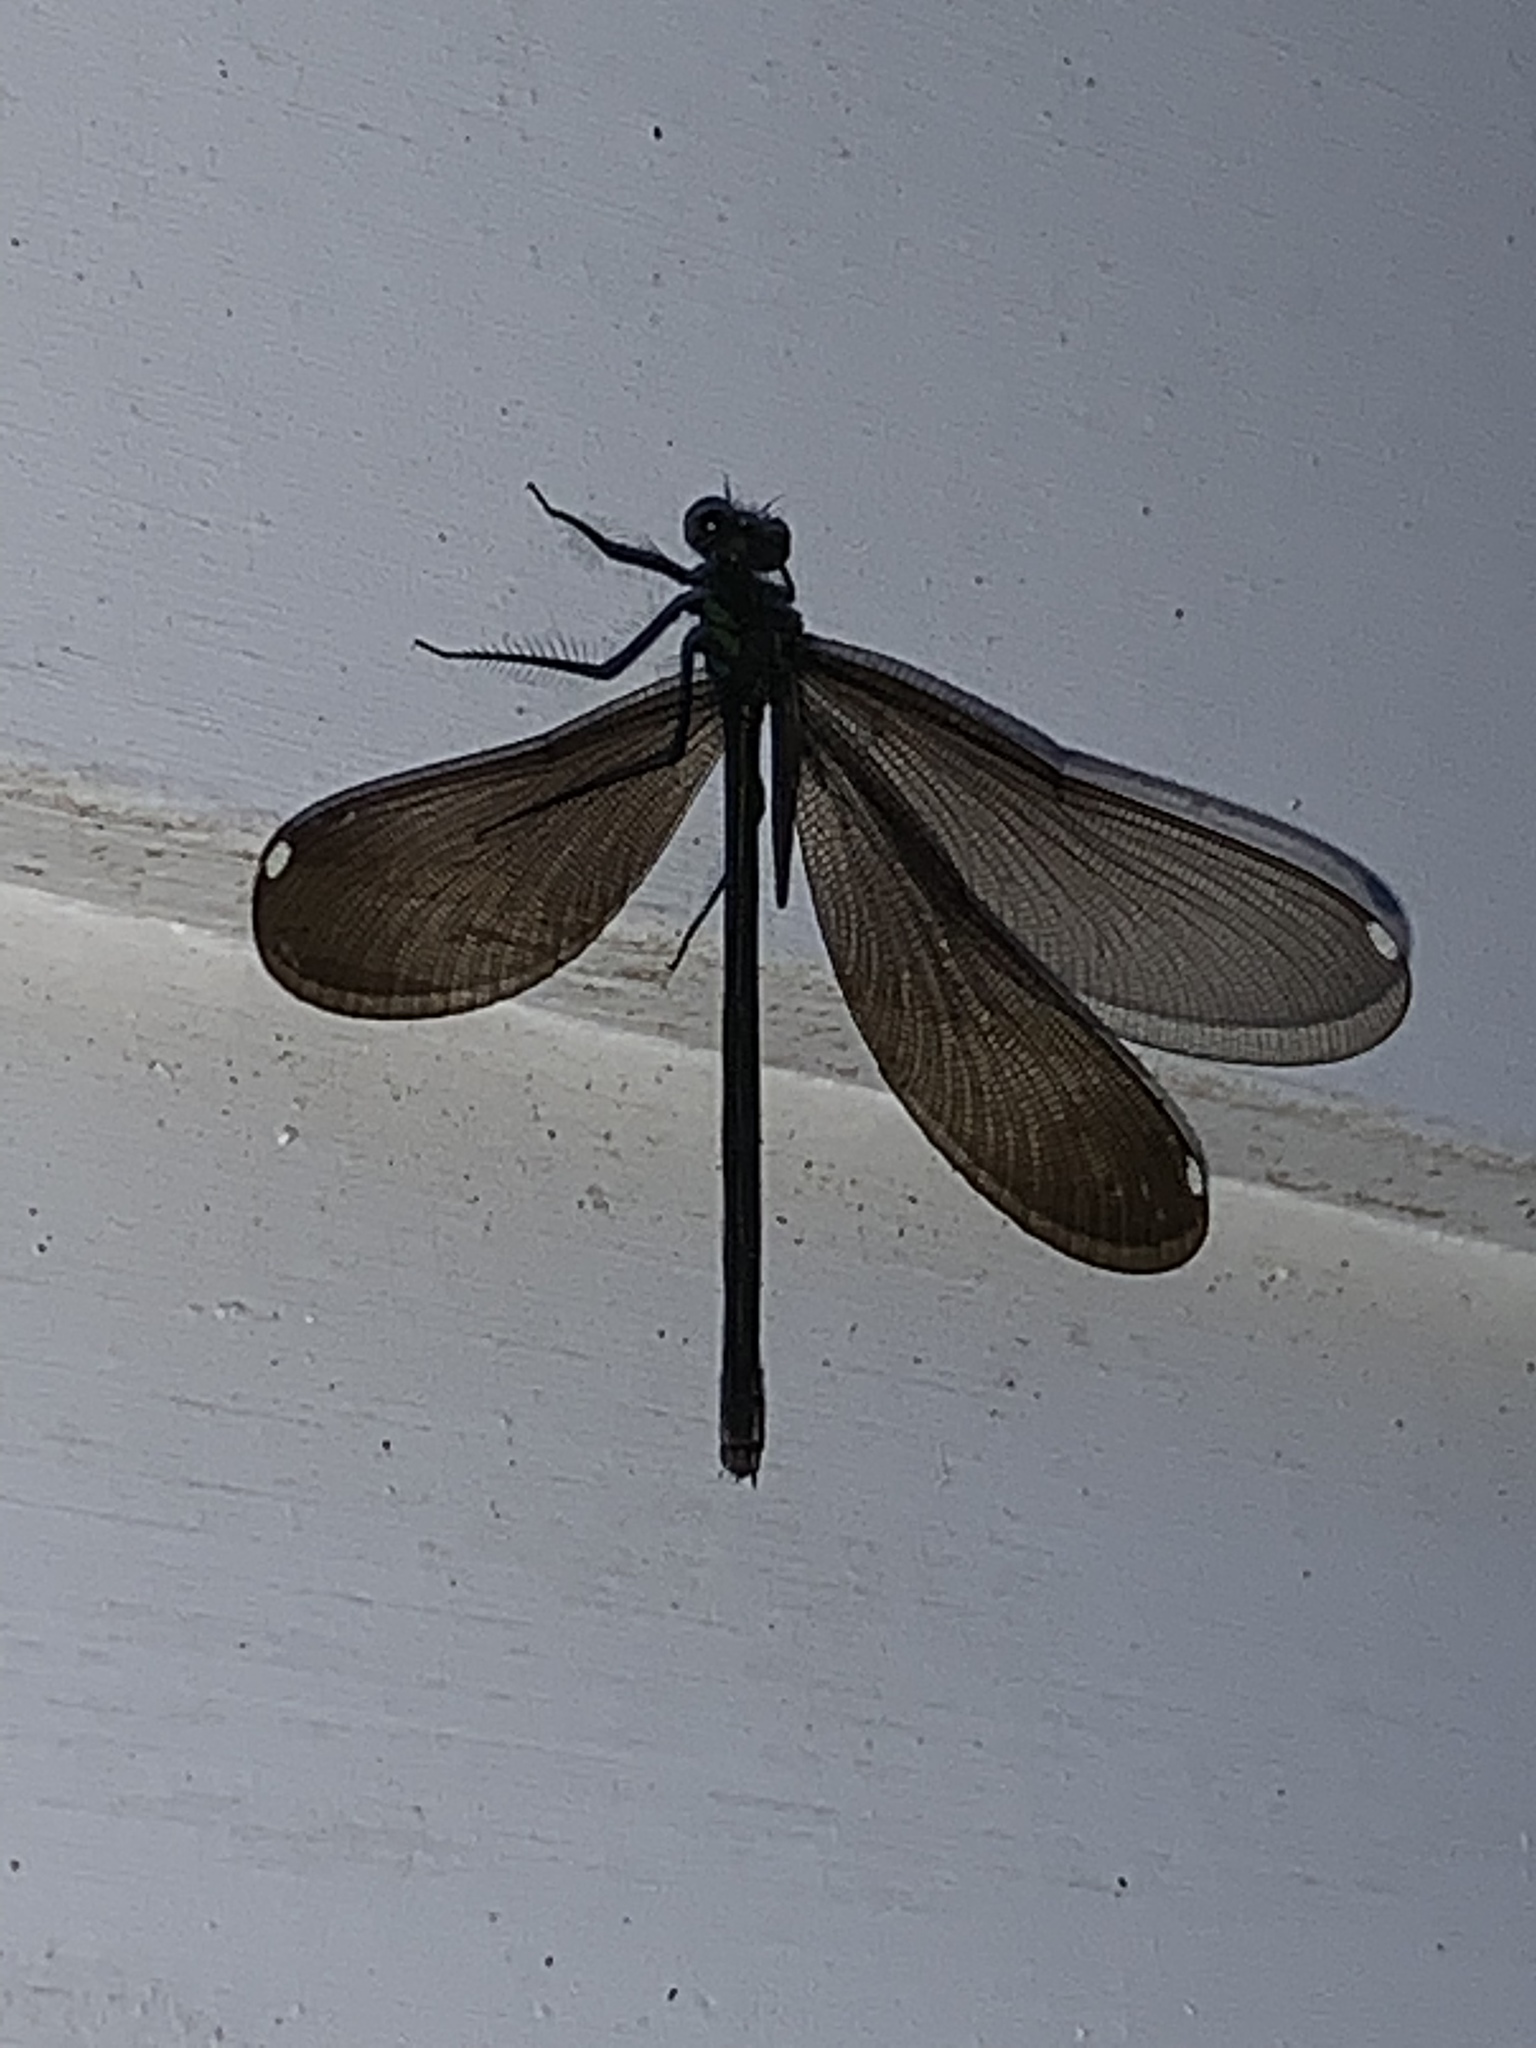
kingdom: Animalia
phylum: Arthropoda
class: Insecta
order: Odonata
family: Calopterygidae
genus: Calopteryx
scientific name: Calopteryx maculata
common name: Ebony jewelwing
